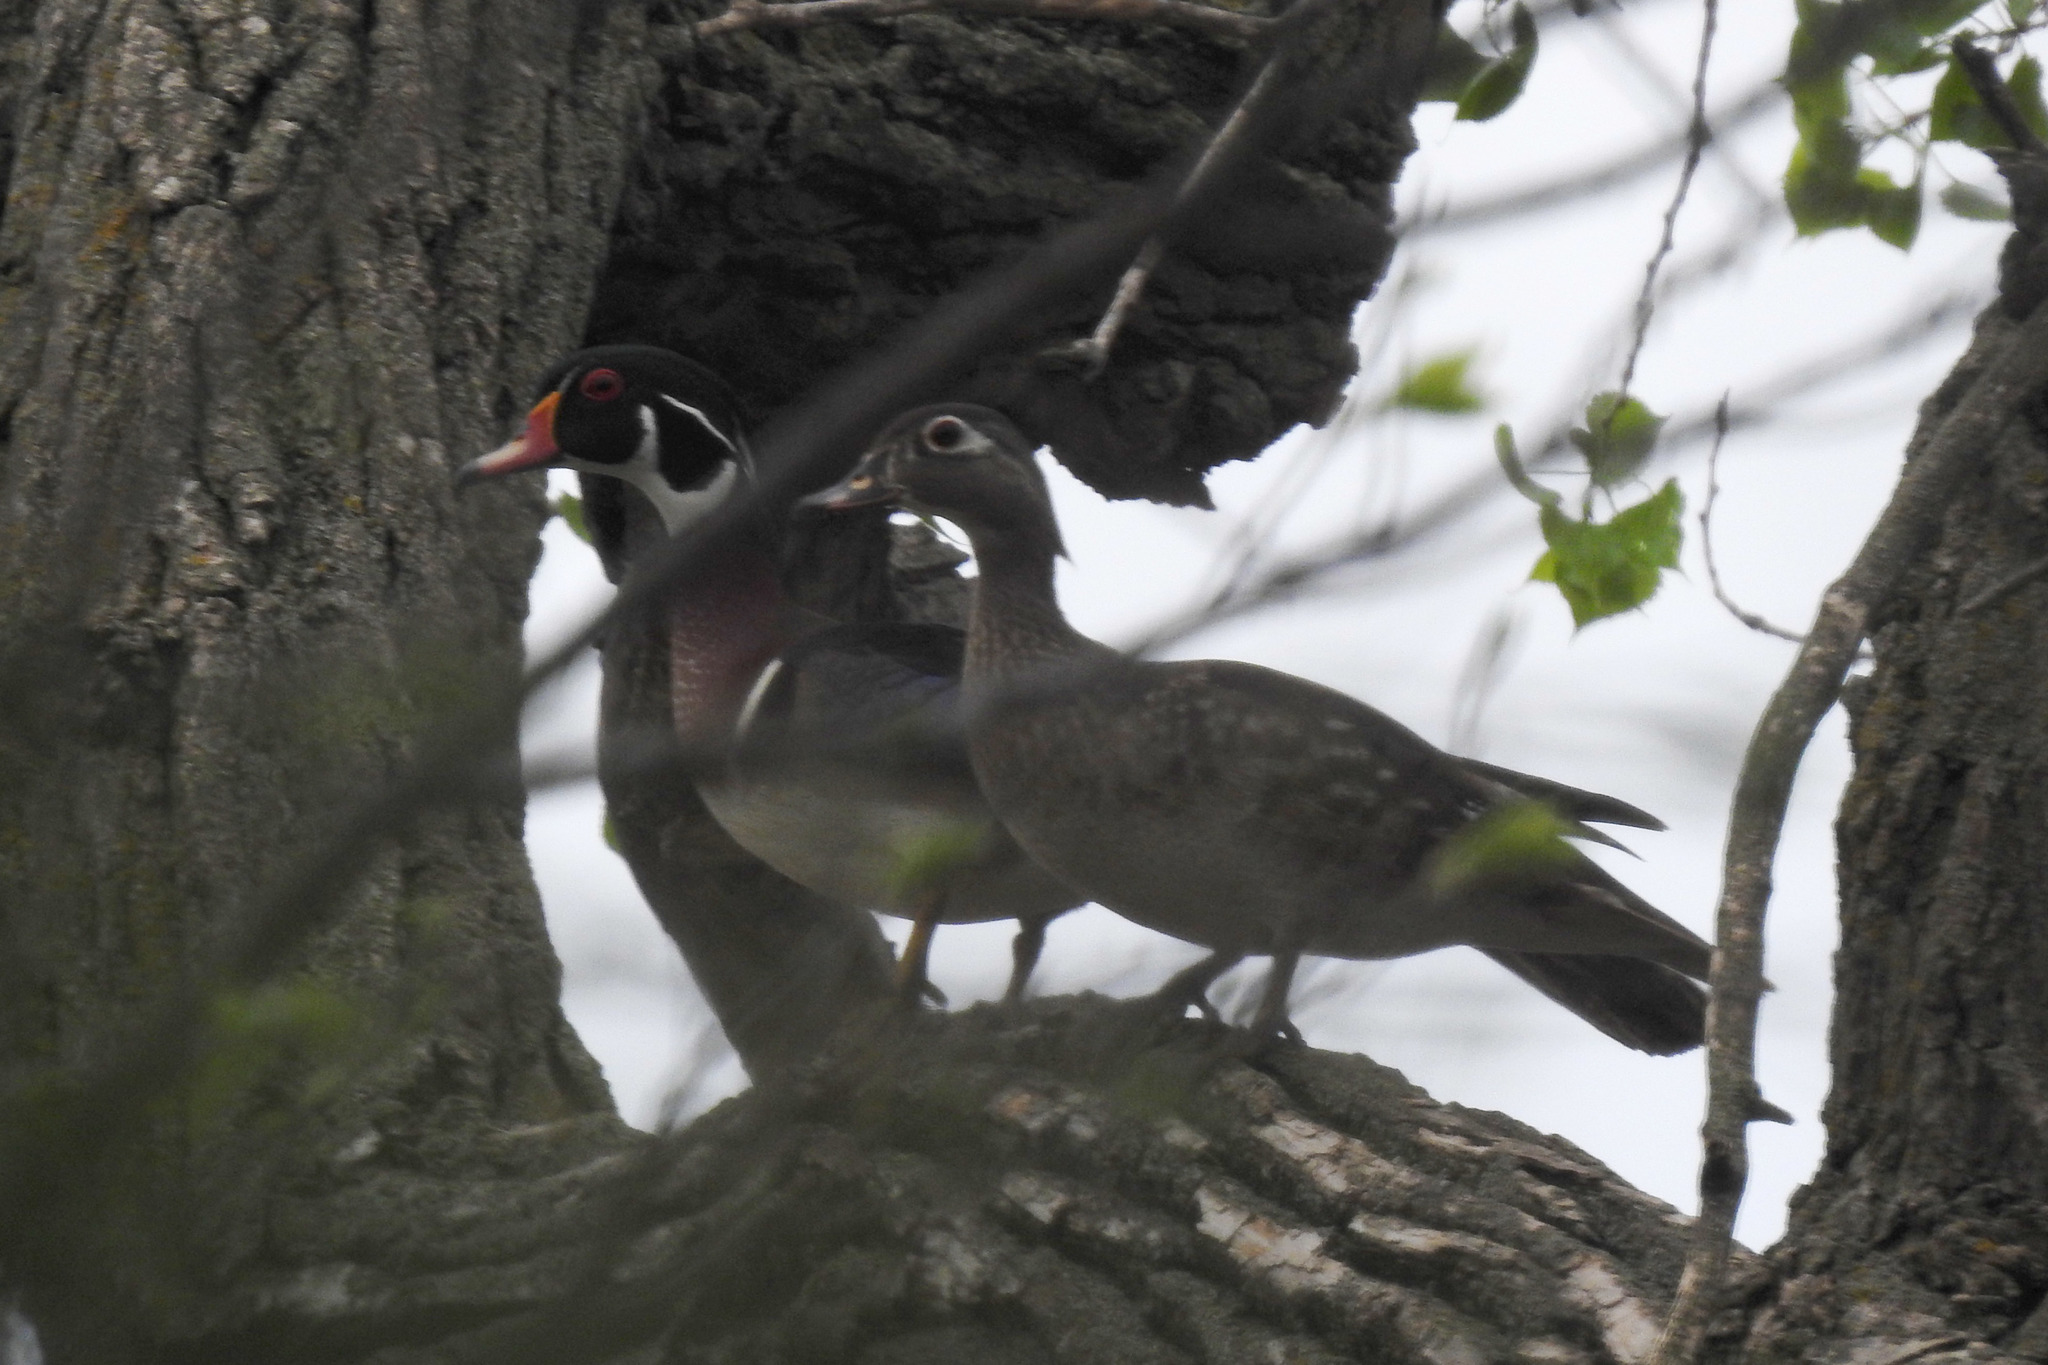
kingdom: Animalia
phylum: Chordata
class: Aves
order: Anseriformes
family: Anatidae
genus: Aix
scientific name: Aix sponsa
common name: Wood duck
